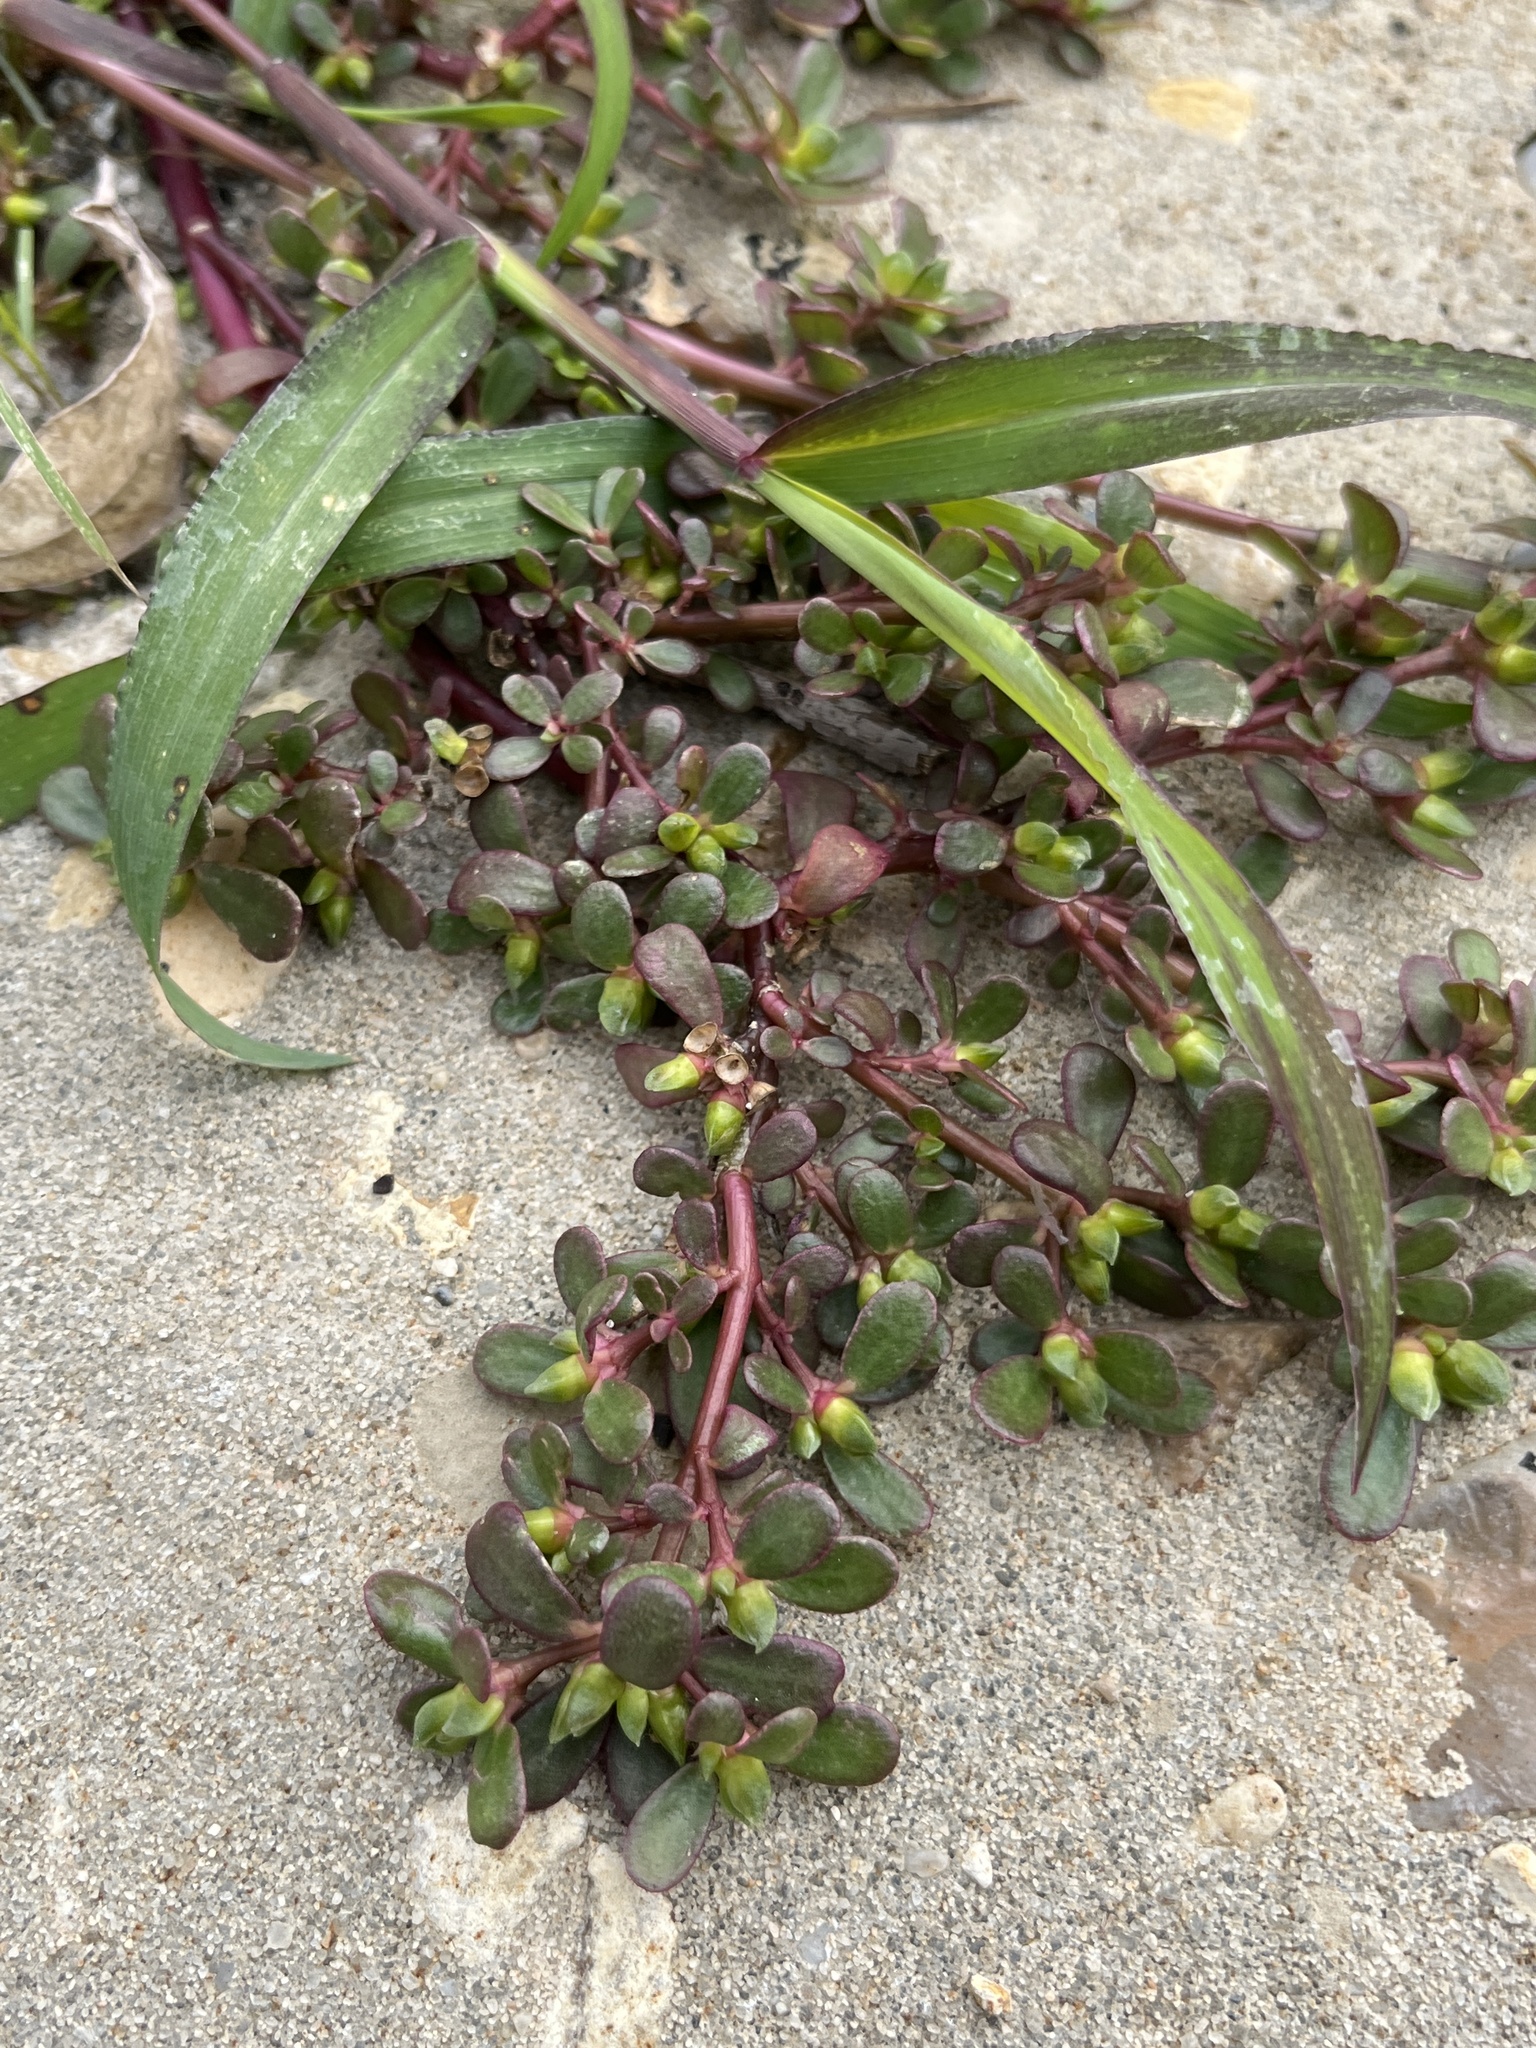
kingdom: Plantae
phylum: Tracheophyta
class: Magnoliopsida
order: Caryophyllales
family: Portulacaceae
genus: Portulaca
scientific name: Portulaca oleracea
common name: Common purslane
